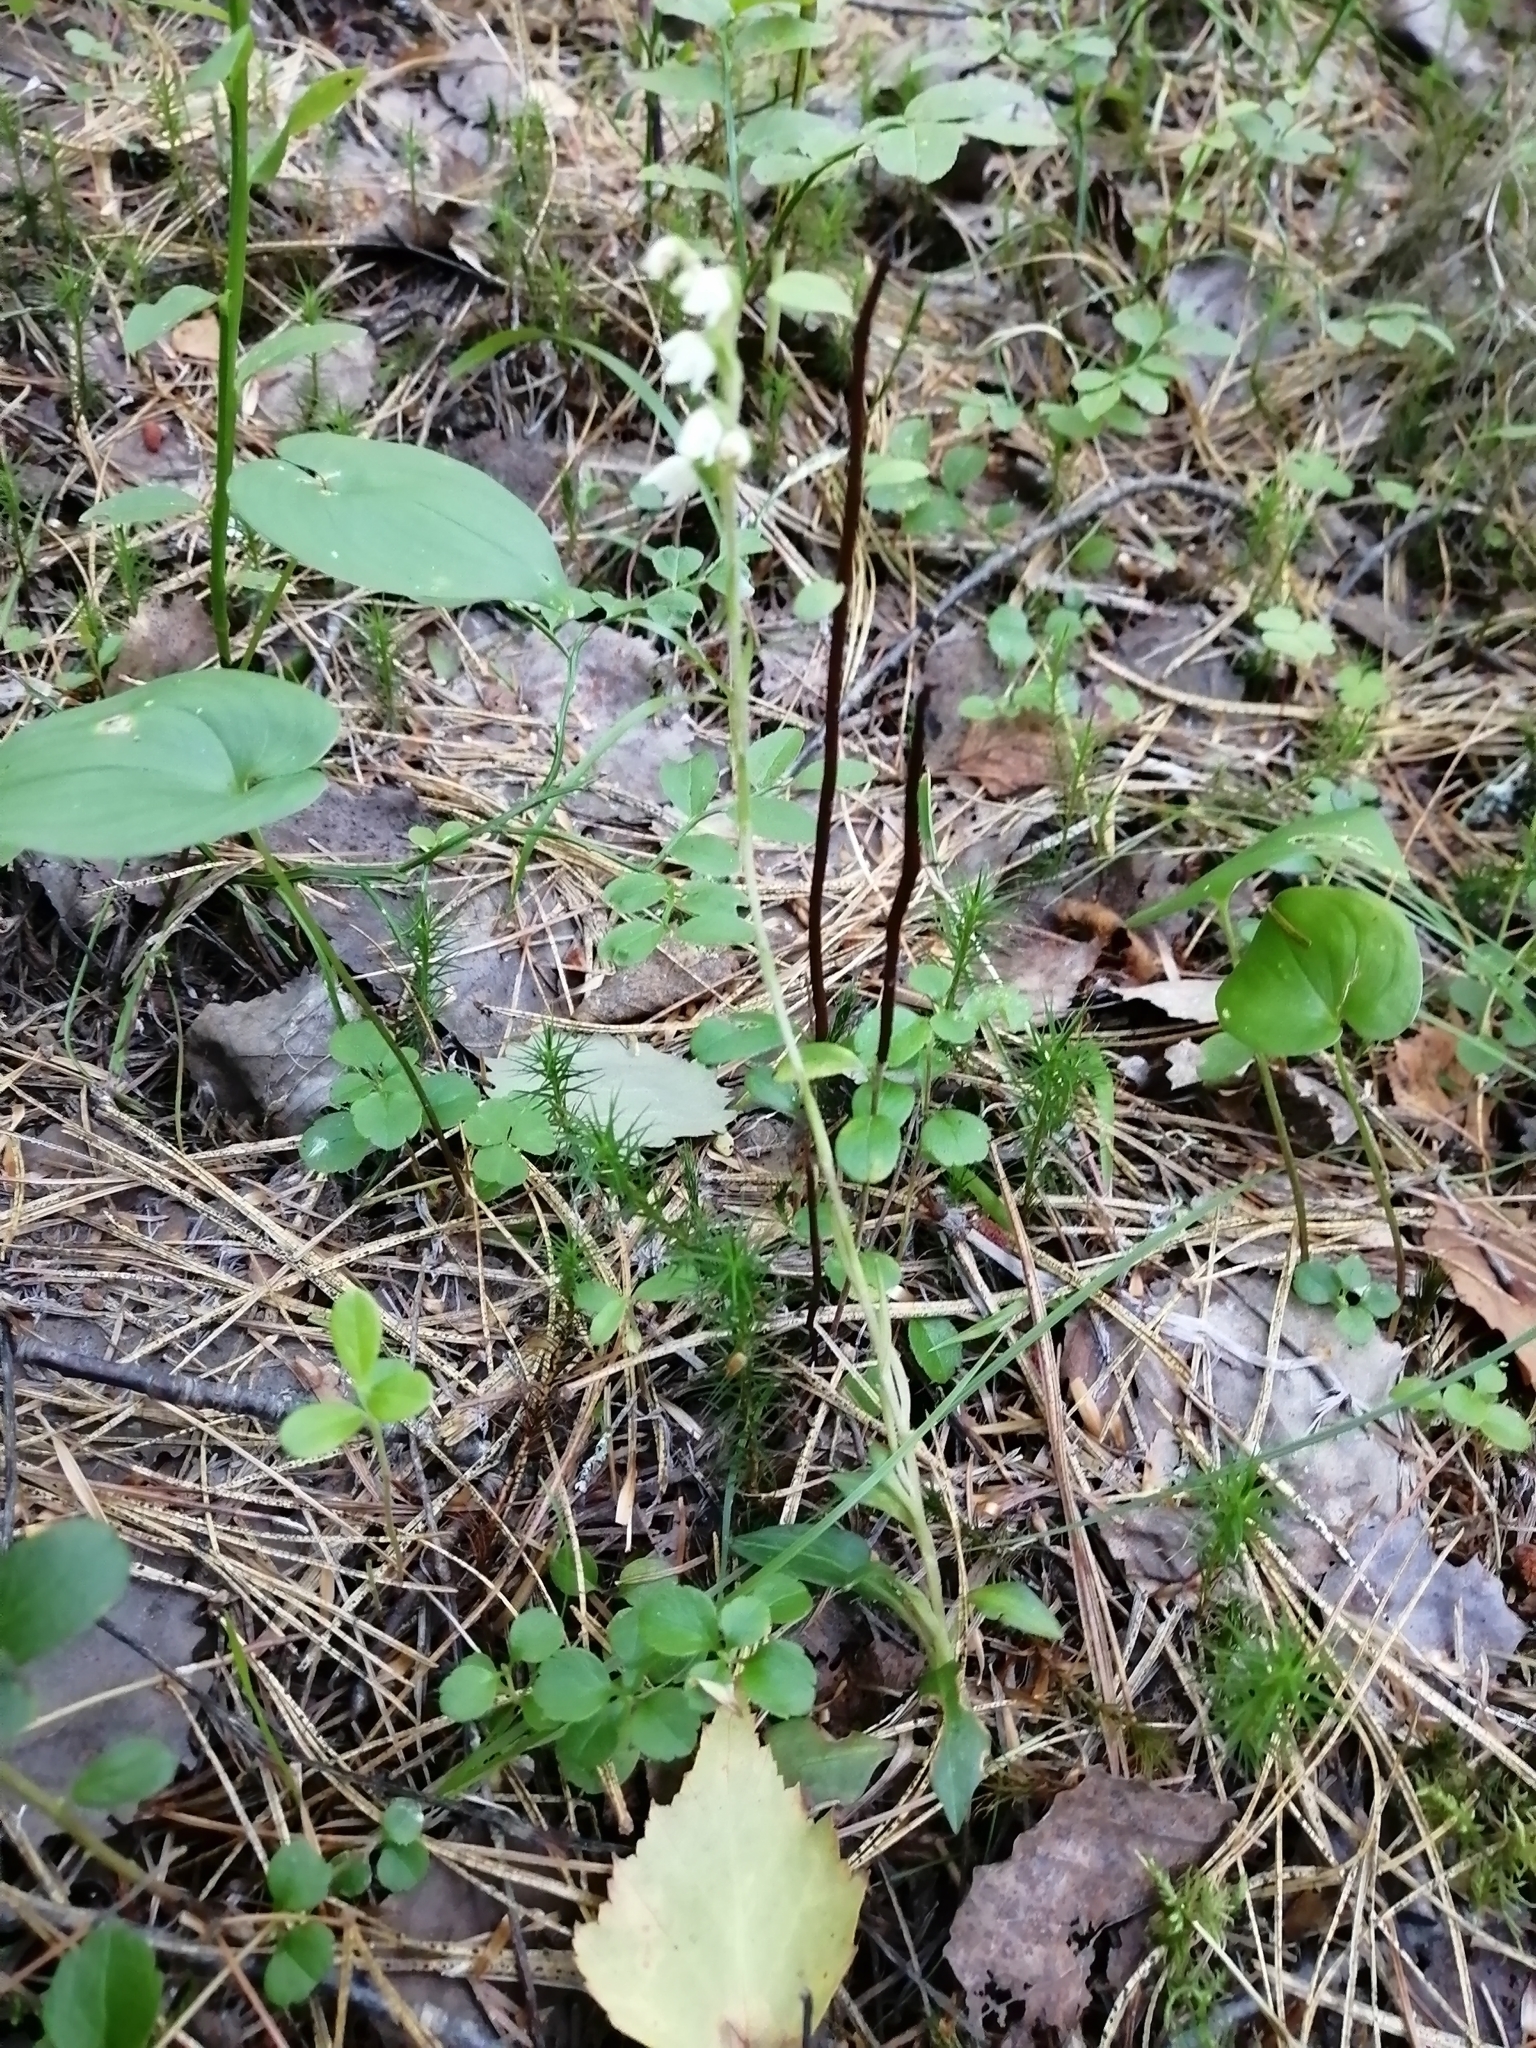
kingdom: Plantae
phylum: Tracheophyta
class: Liliopsida
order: Asparagales
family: Orchidaceae
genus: Goodyera
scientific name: Goodyera repens
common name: Creeping lady's-tresses
